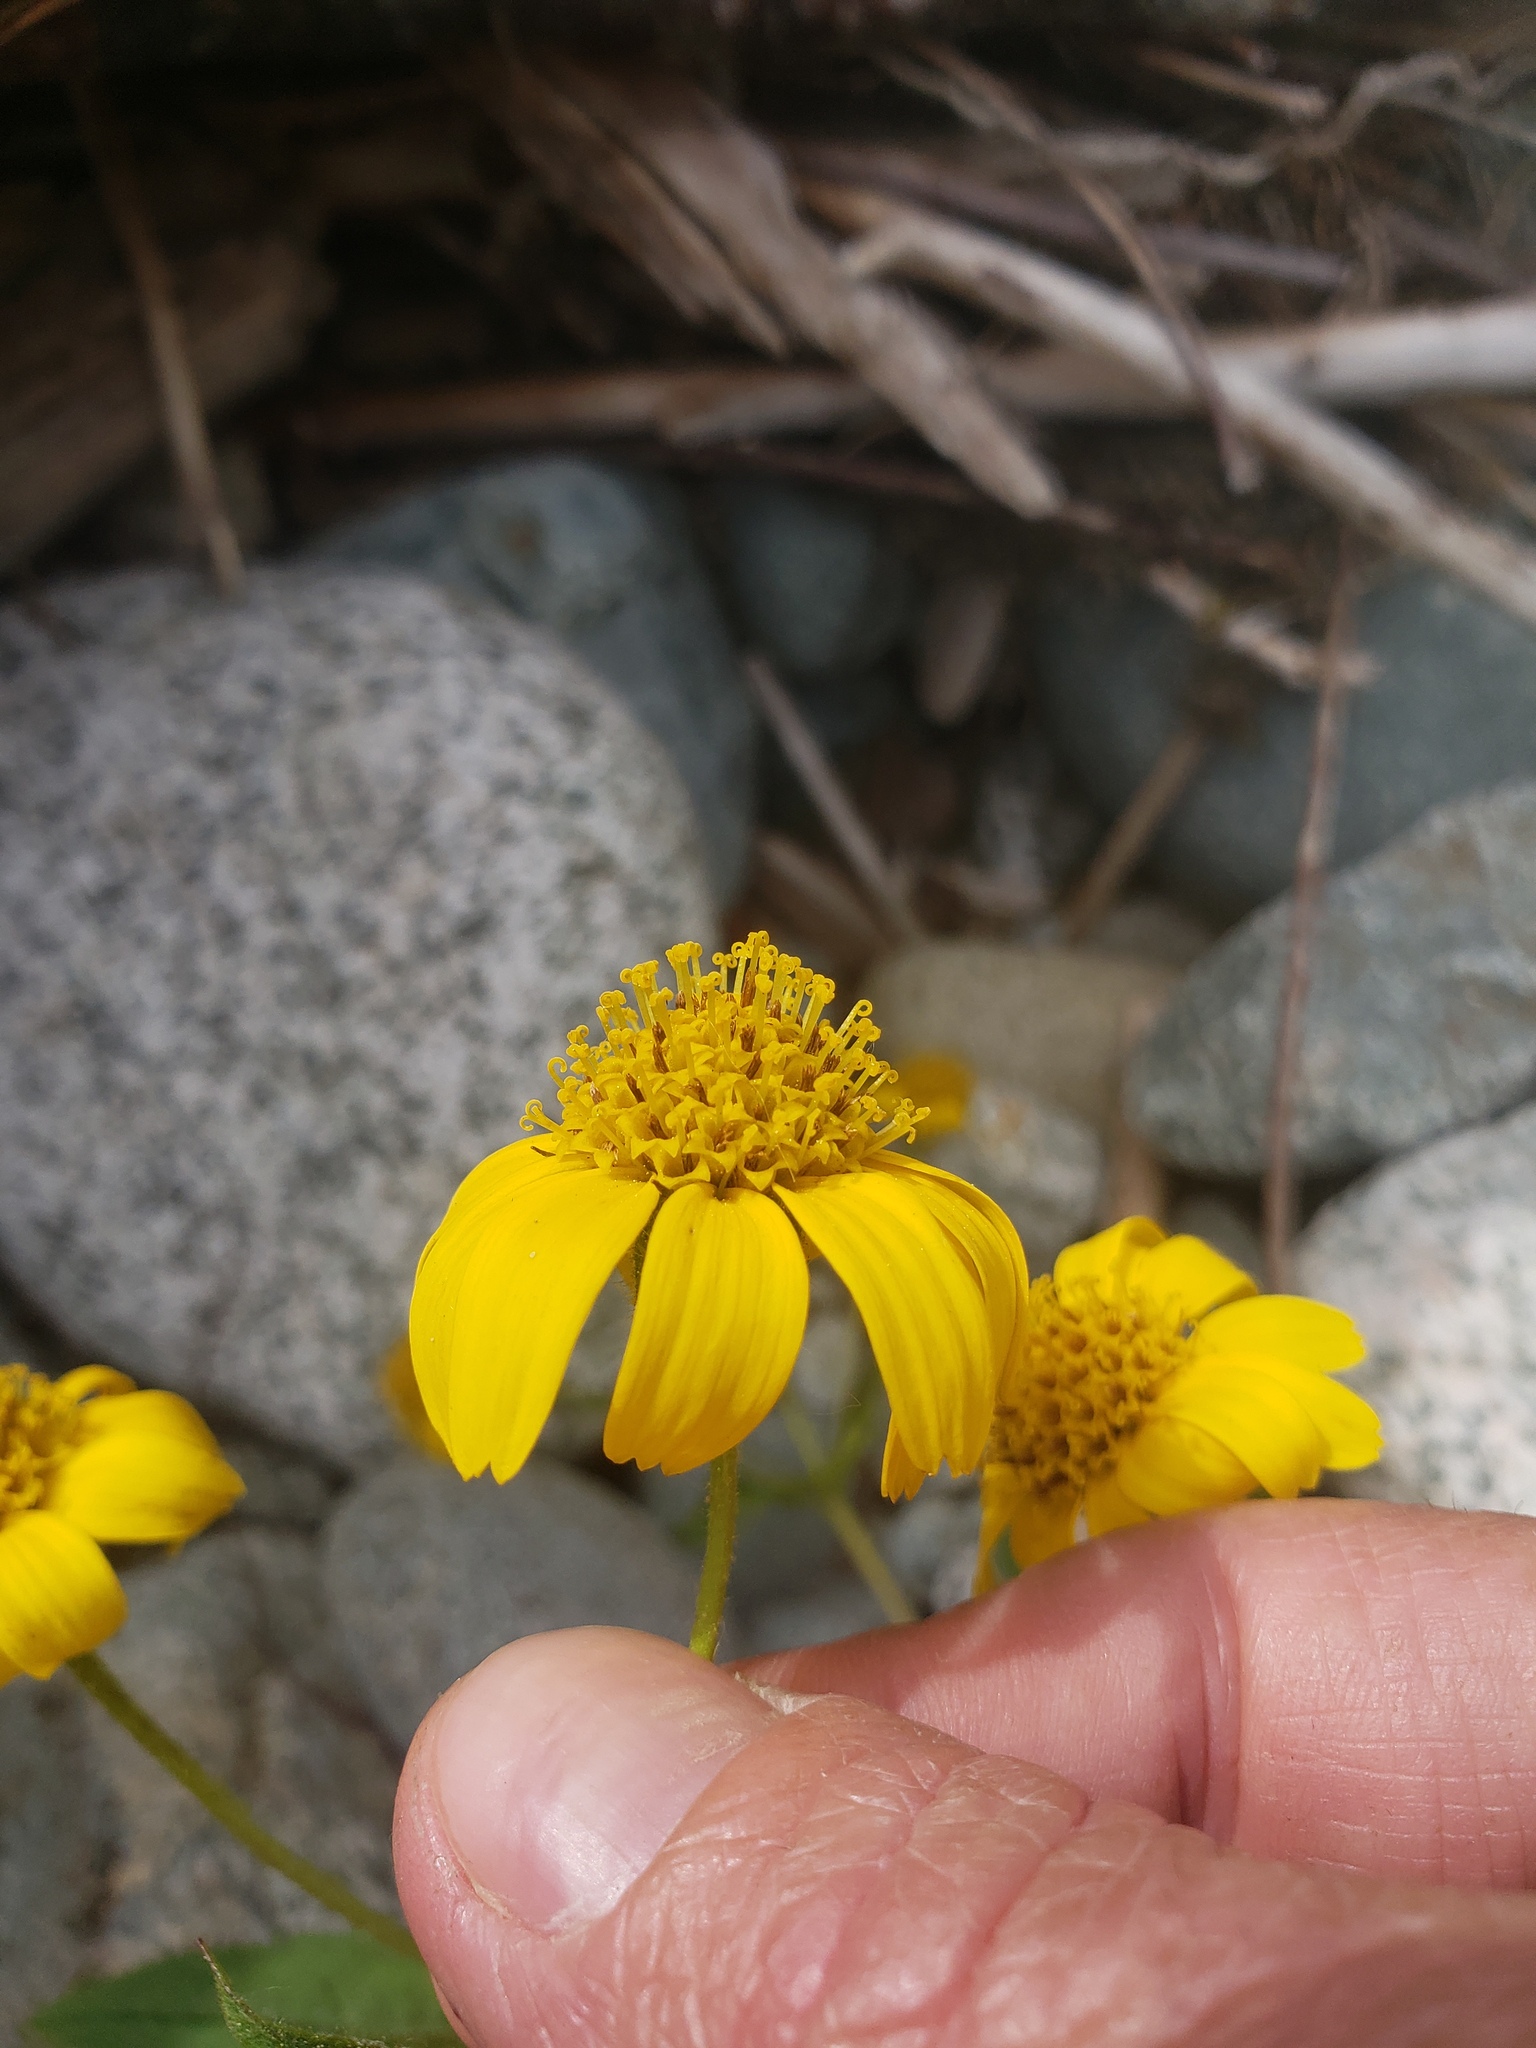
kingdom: Plantae
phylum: Tracheophyta
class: Magnoliopsida
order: Asterales
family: Asteraceae
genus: Arnica
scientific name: Arnica lanceolata
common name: Lance-leaved arnica
